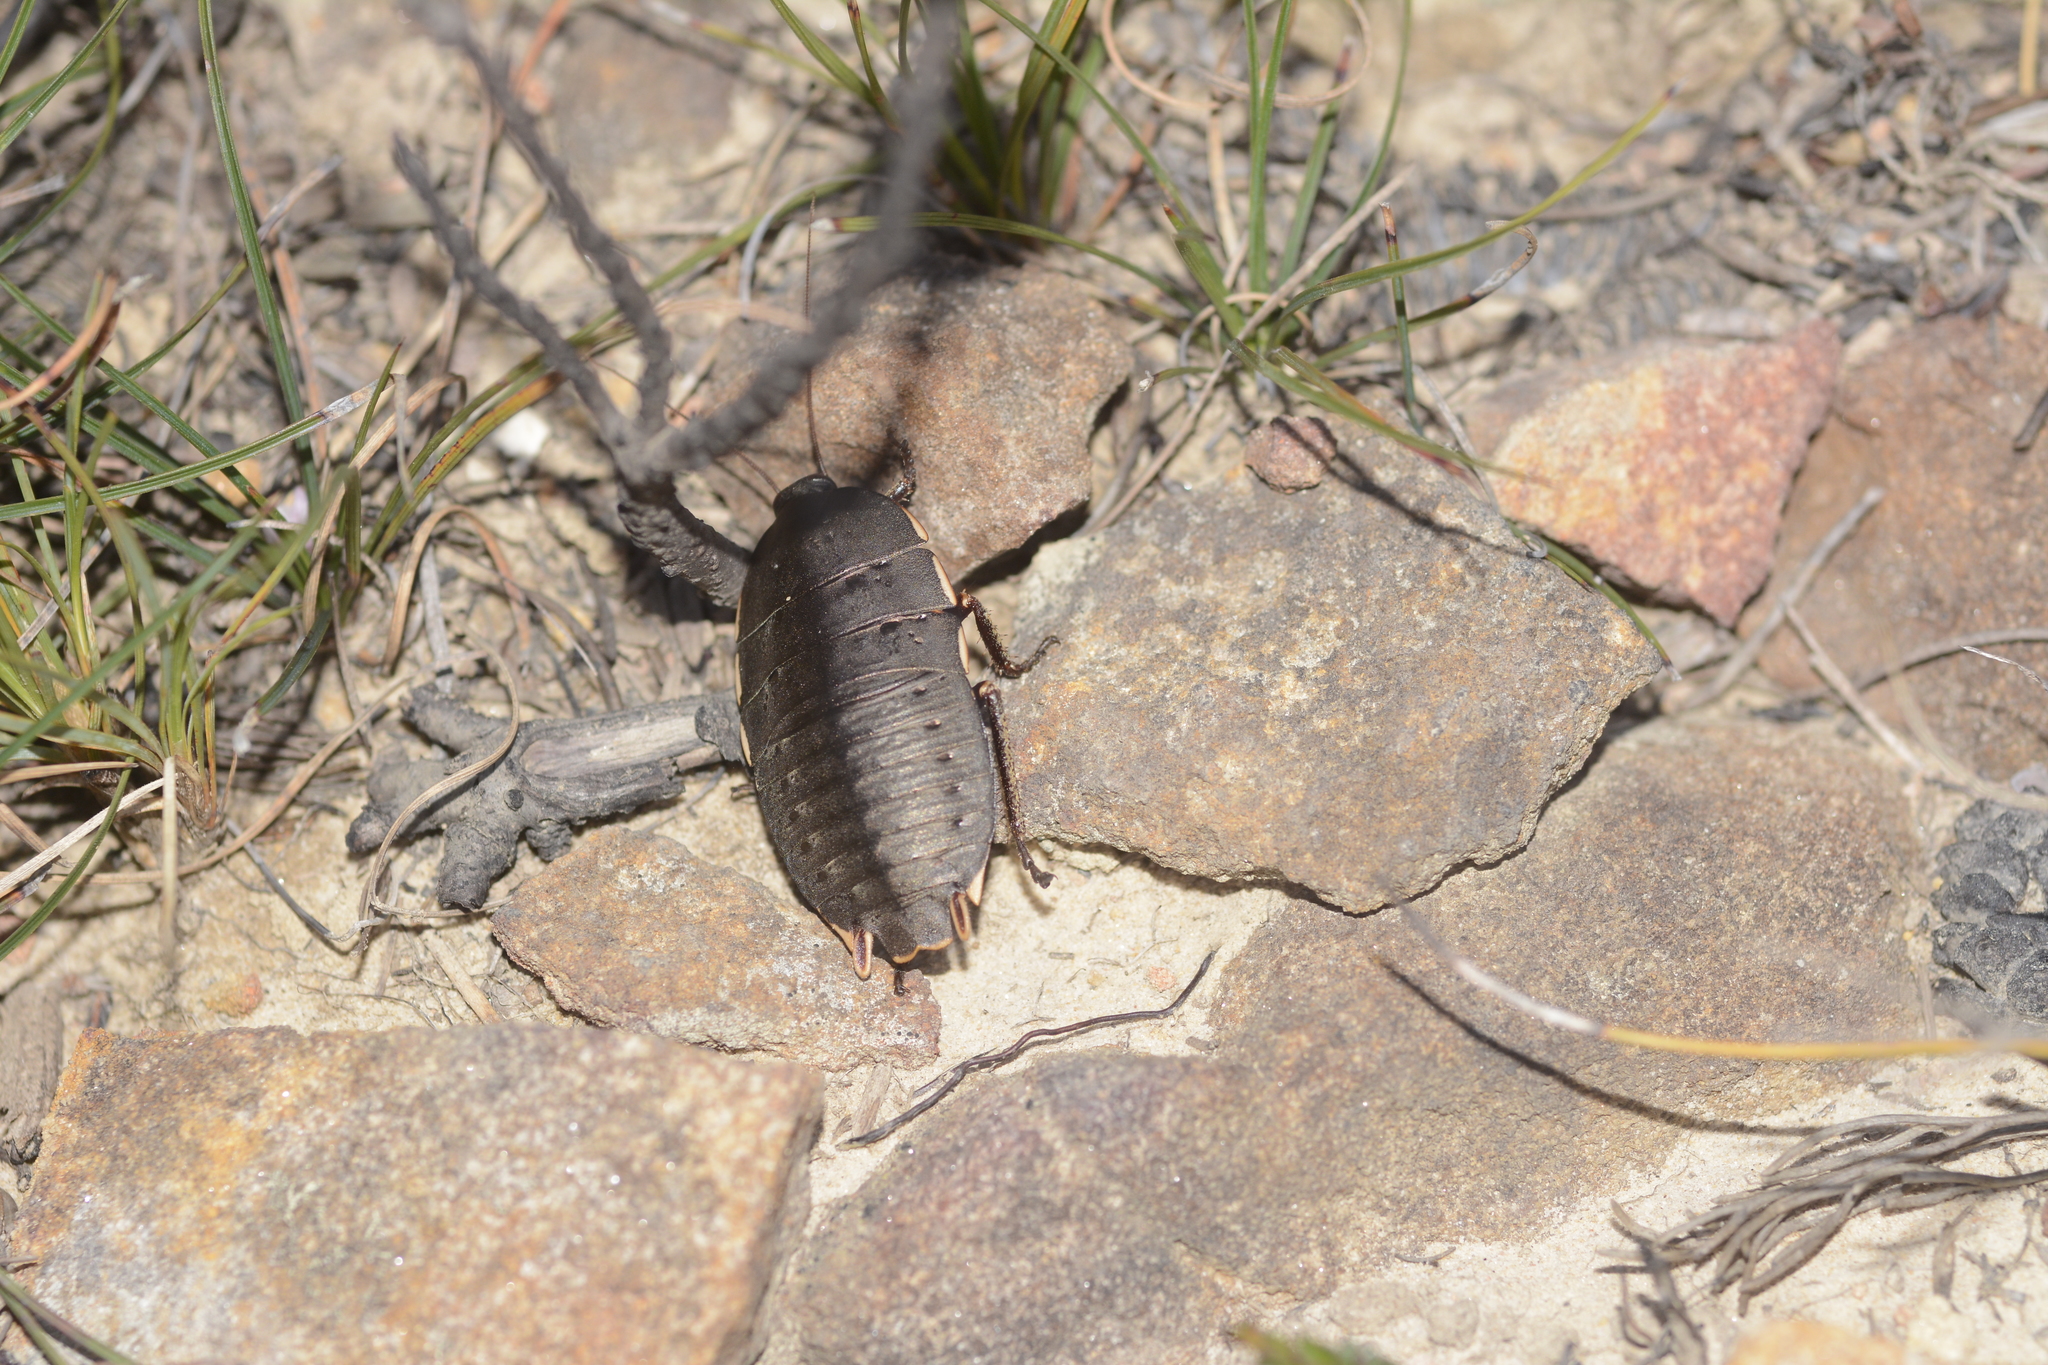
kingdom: Animalia
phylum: Arthropoda
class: Insecta
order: Blattodea
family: Blattidae
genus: Polyzosteria
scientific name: Polyzosteria limbata
